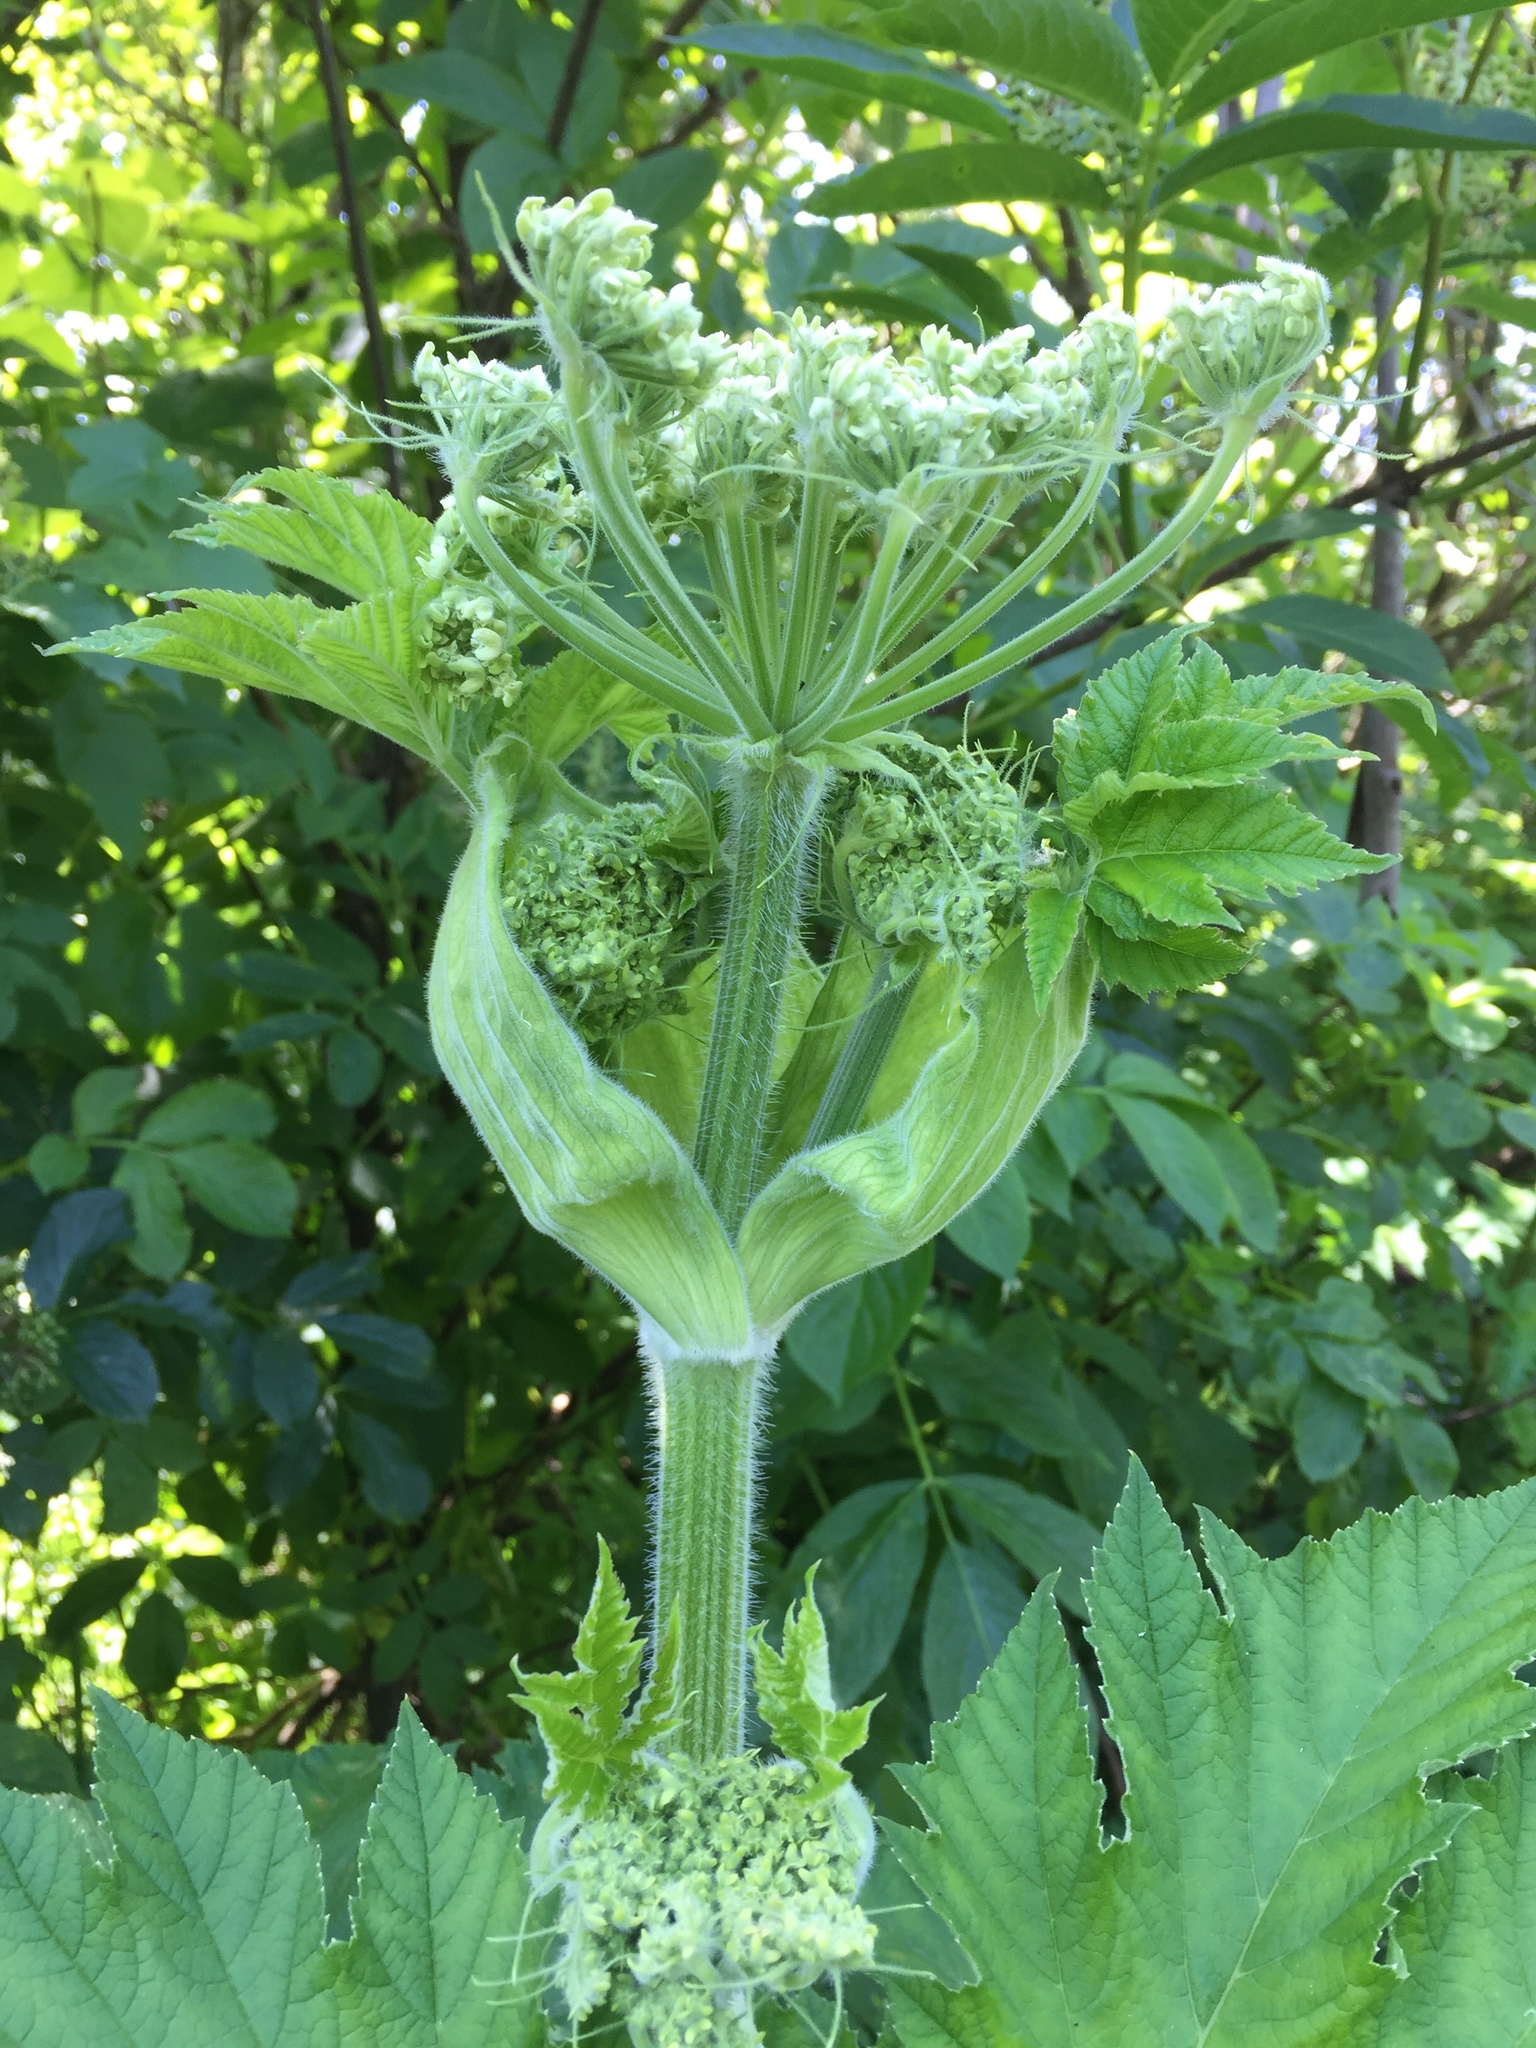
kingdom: Plantae
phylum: Tracheophyta
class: Magnoliopsida
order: Apiales
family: Apiaceae
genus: Heracleum
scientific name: Heracleum maximum
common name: American cow parsnip
